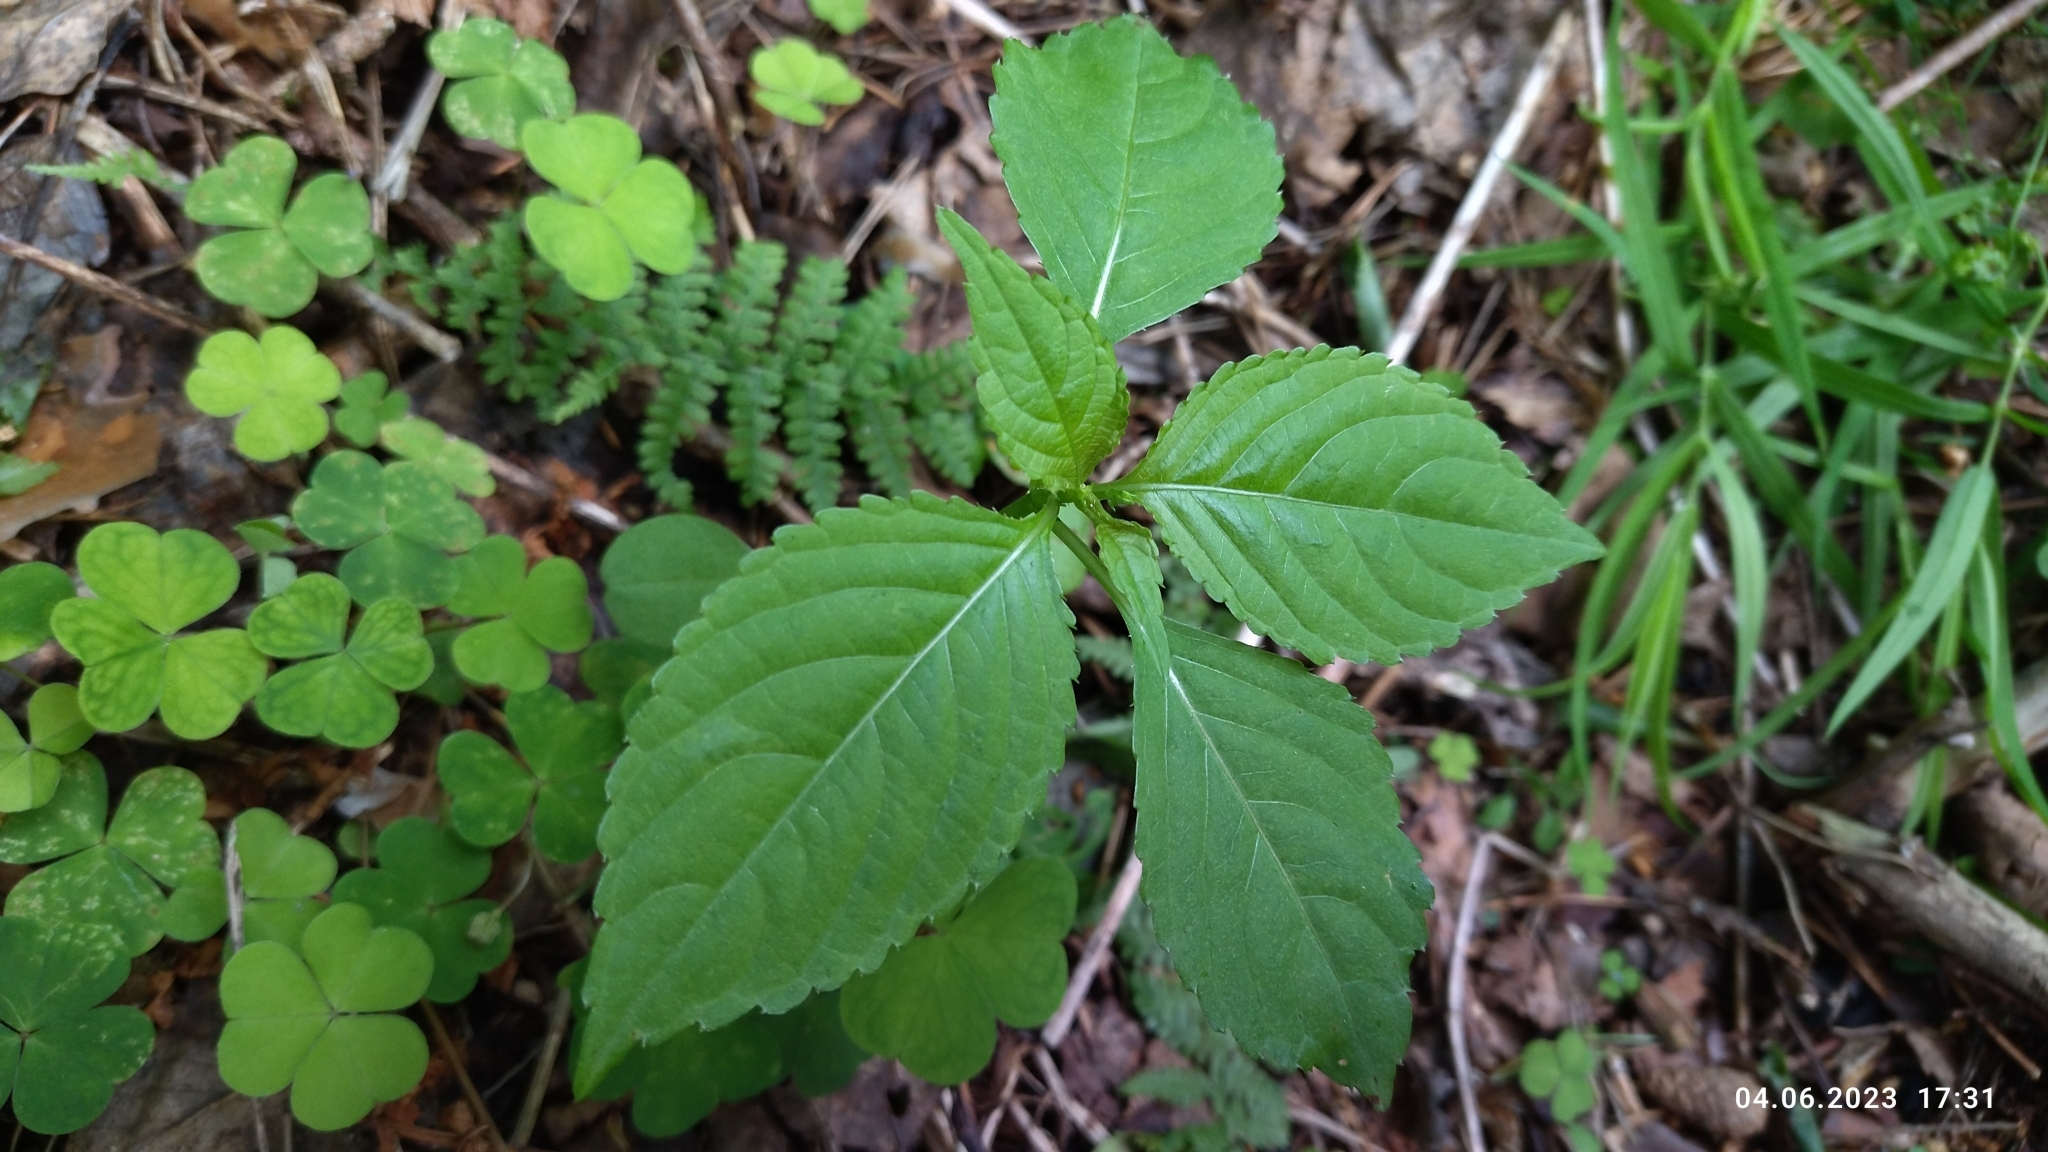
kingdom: Plantae
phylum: Tracheophyta
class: Magnoliopsida
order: Ericales
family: Balsaminaceae
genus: Impatiens
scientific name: Impatiens parviflora
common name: Small balsam
